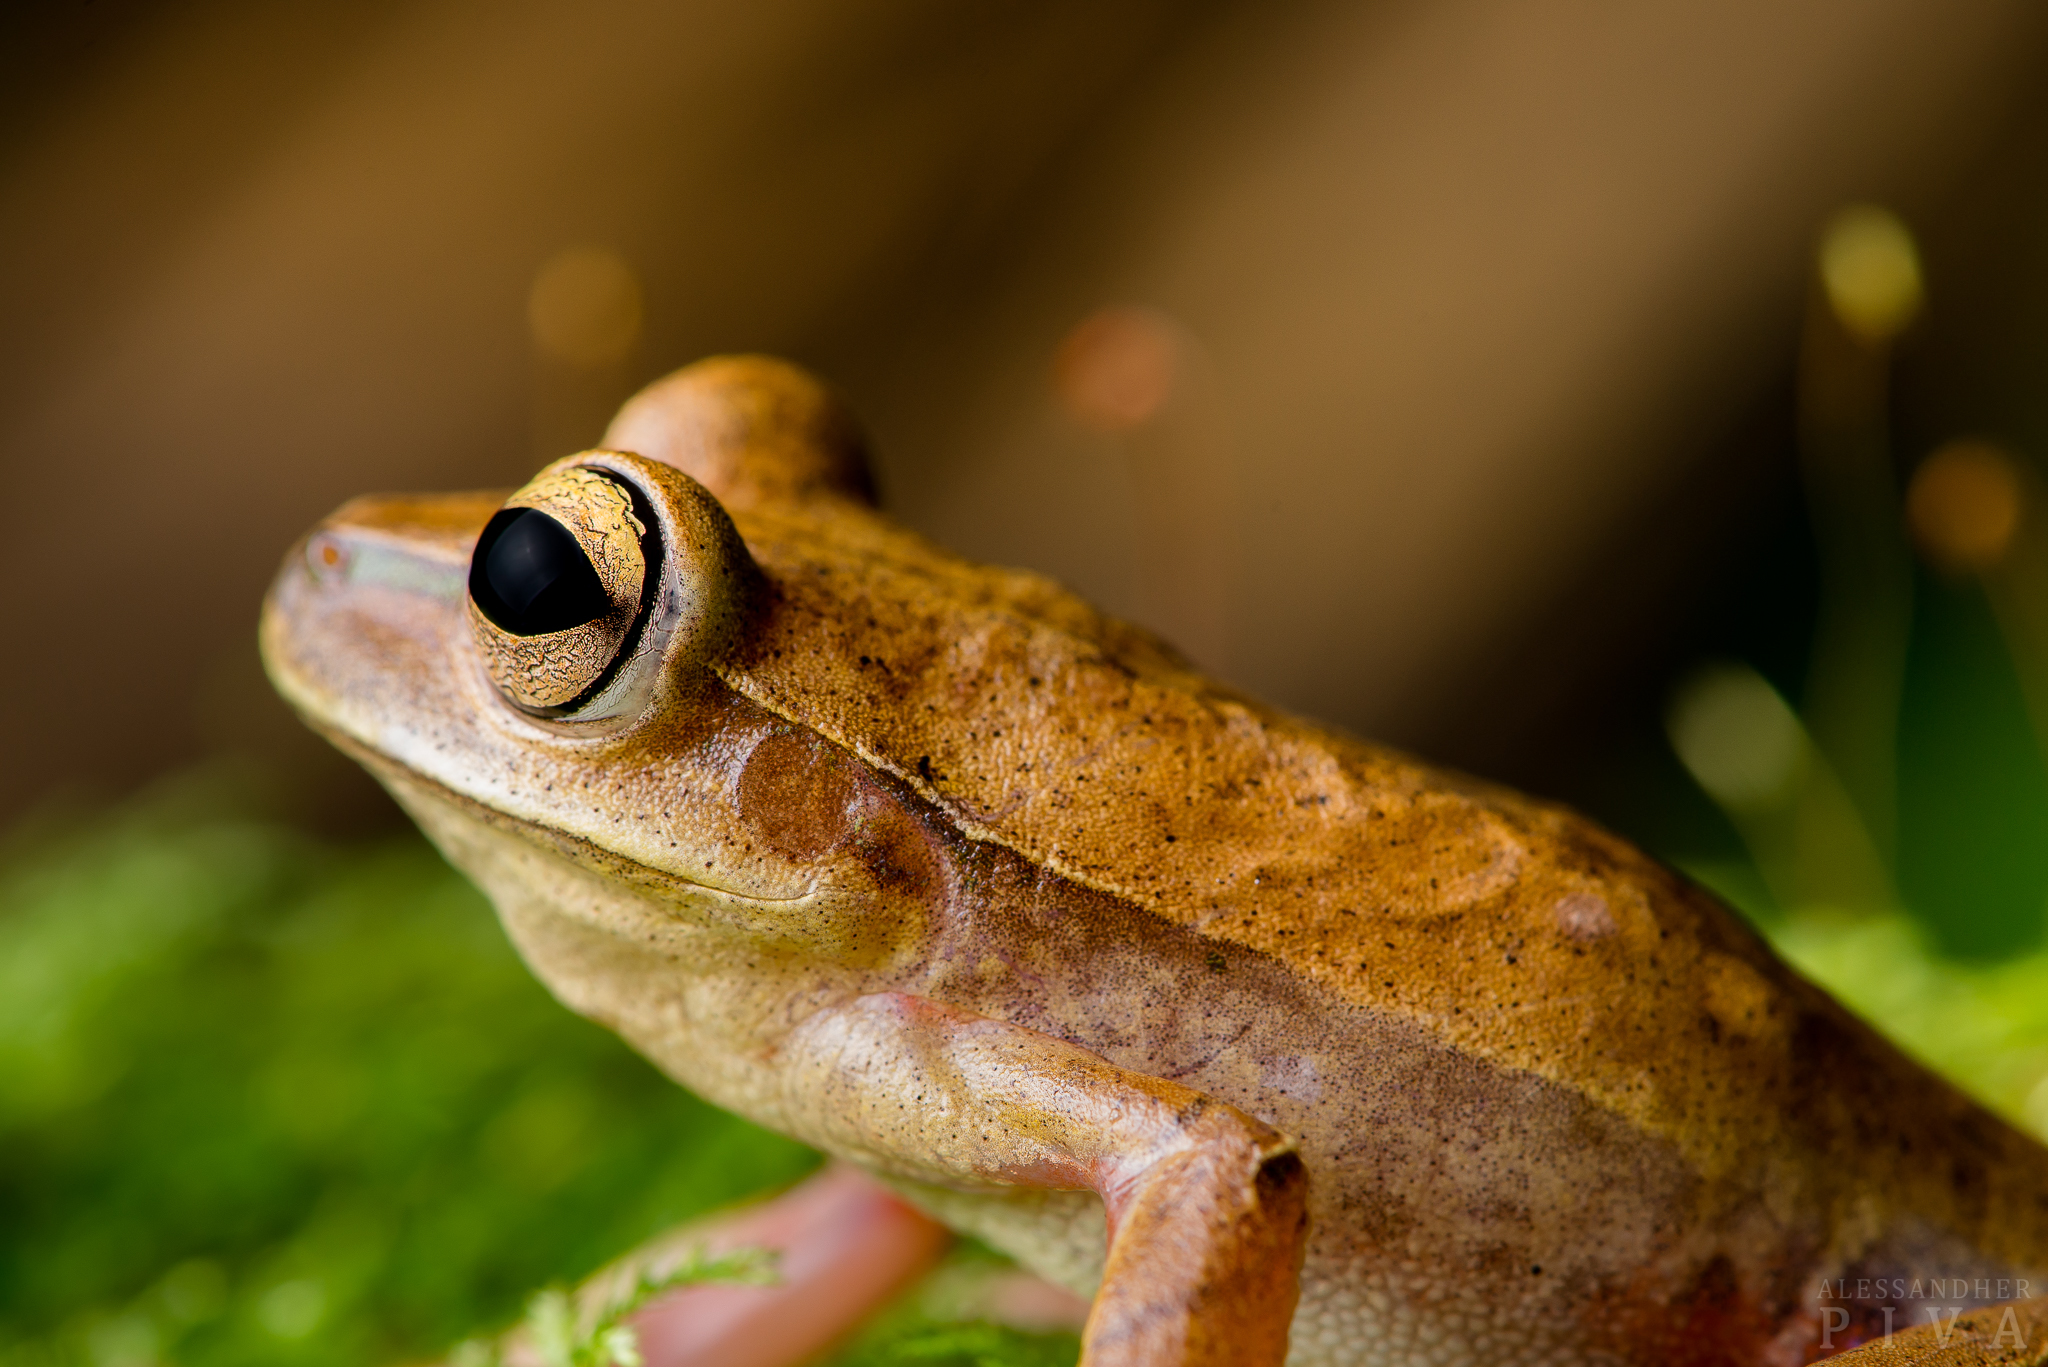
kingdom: Animalia
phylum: Chordata
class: Amphibia
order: Anura
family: Hylidae
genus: Boana
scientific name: Boana bischoffi
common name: Bischoff's treefrog
